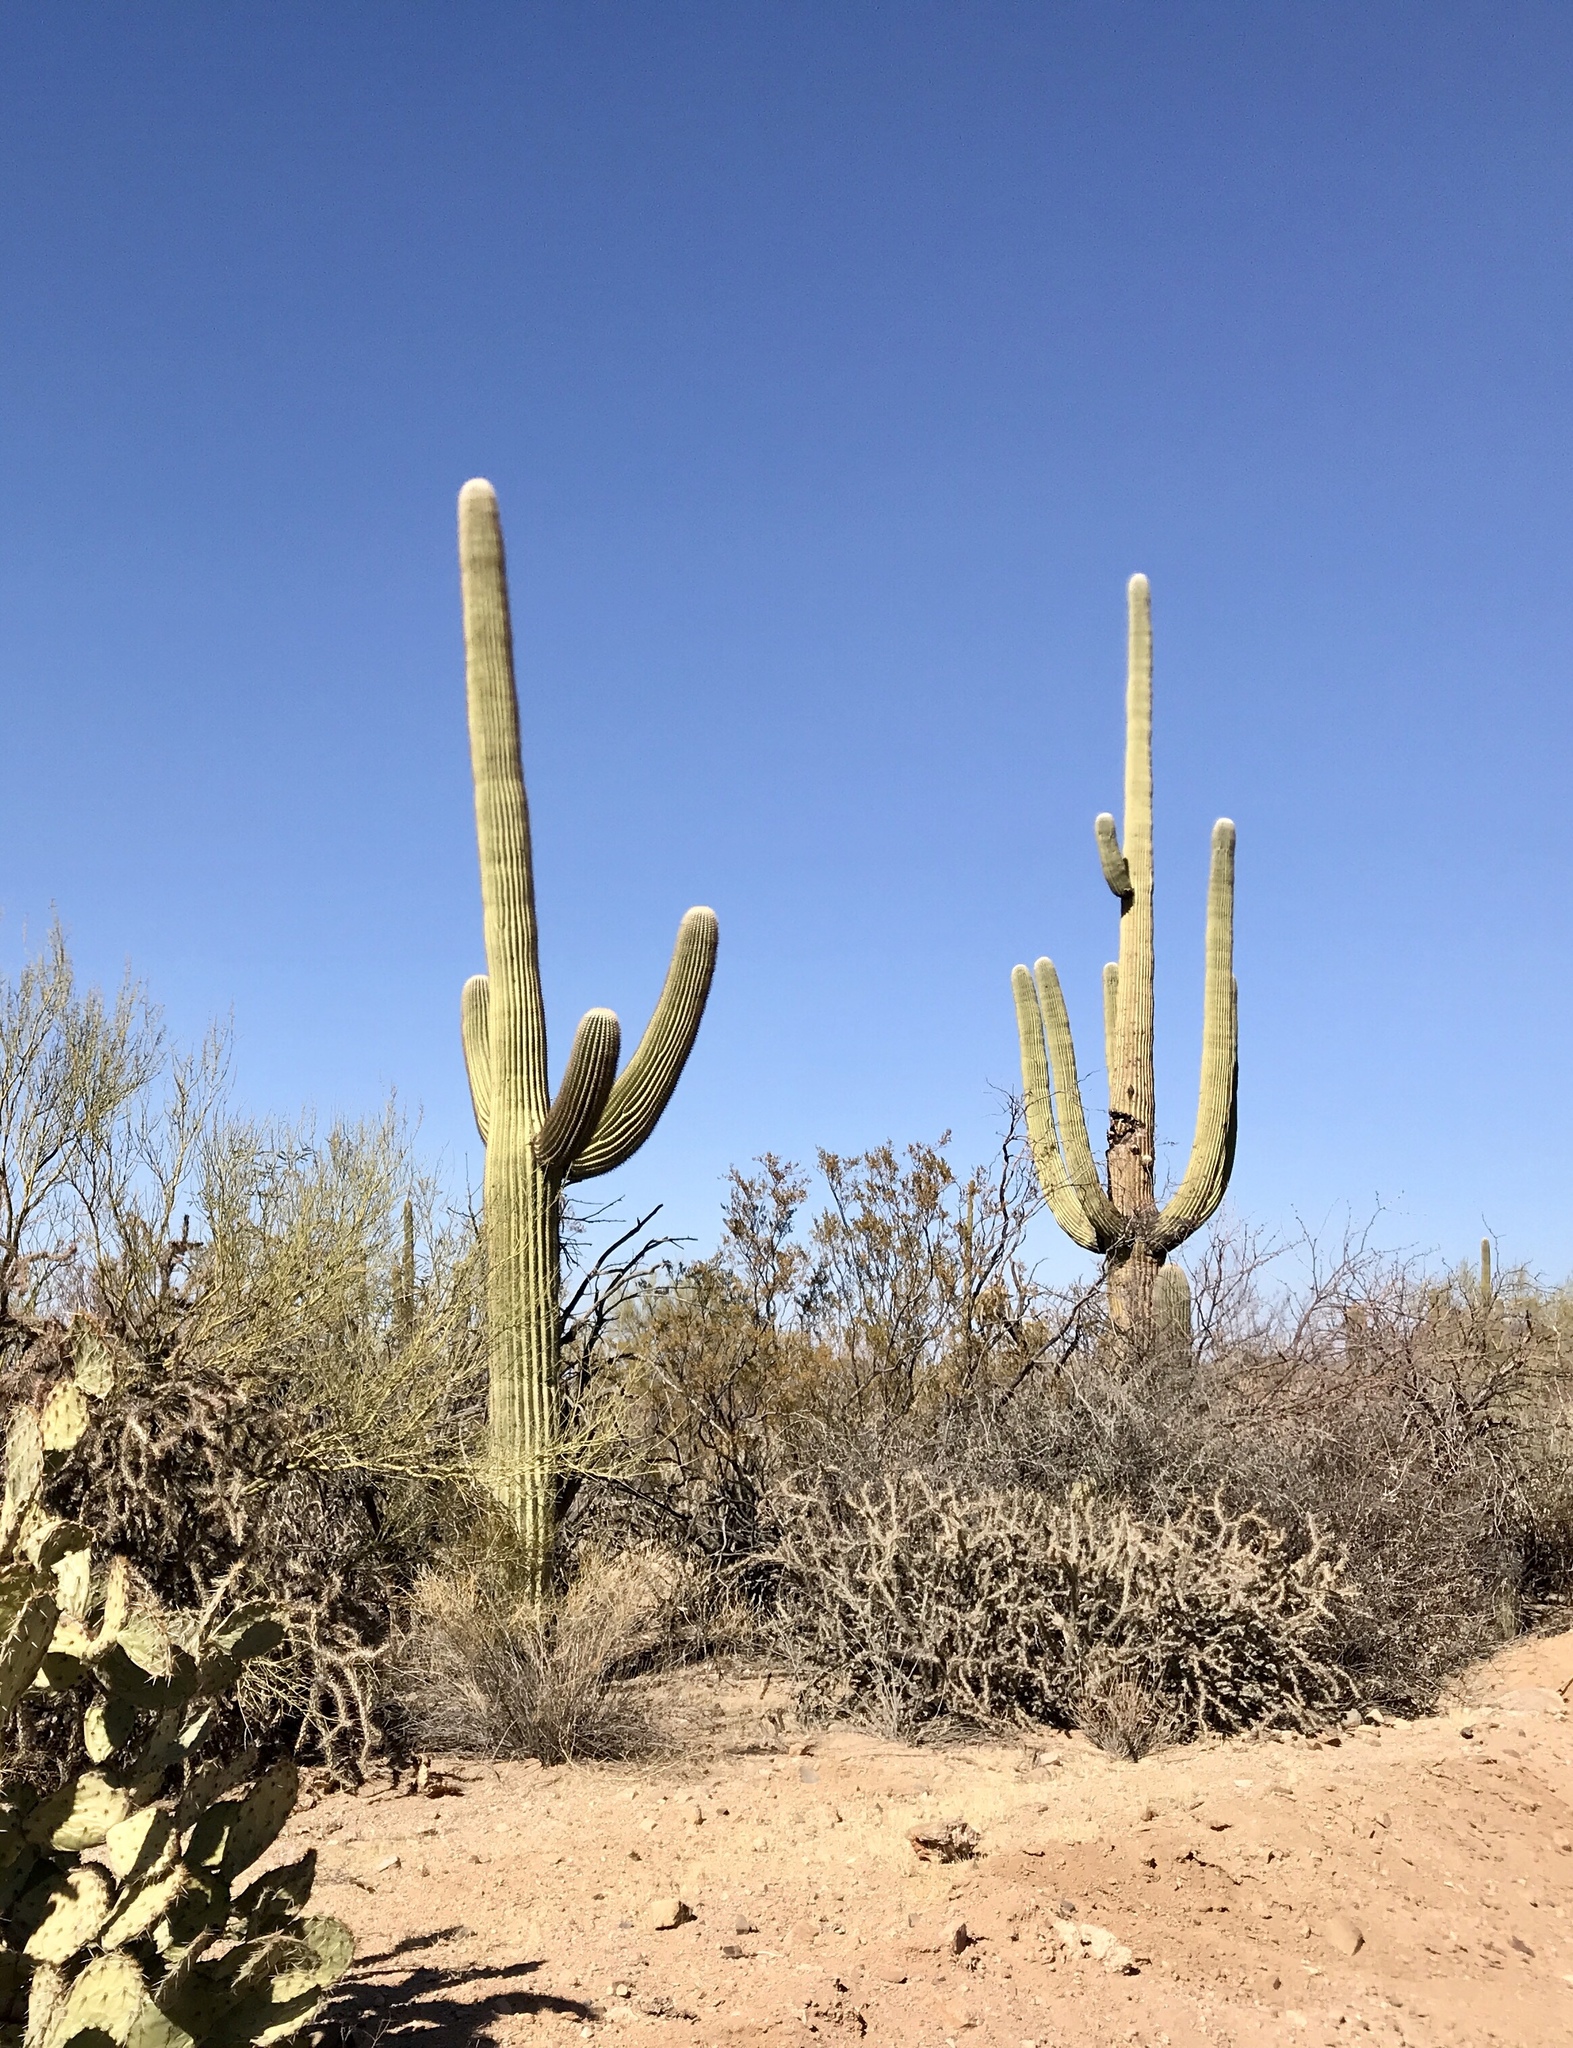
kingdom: Plantae
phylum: Tracheophyta
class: Magnoliopsida
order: Caryophyllales
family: Cactaceae
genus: Carnegiea
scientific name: Carnegiea gigantea
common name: Saguaro
